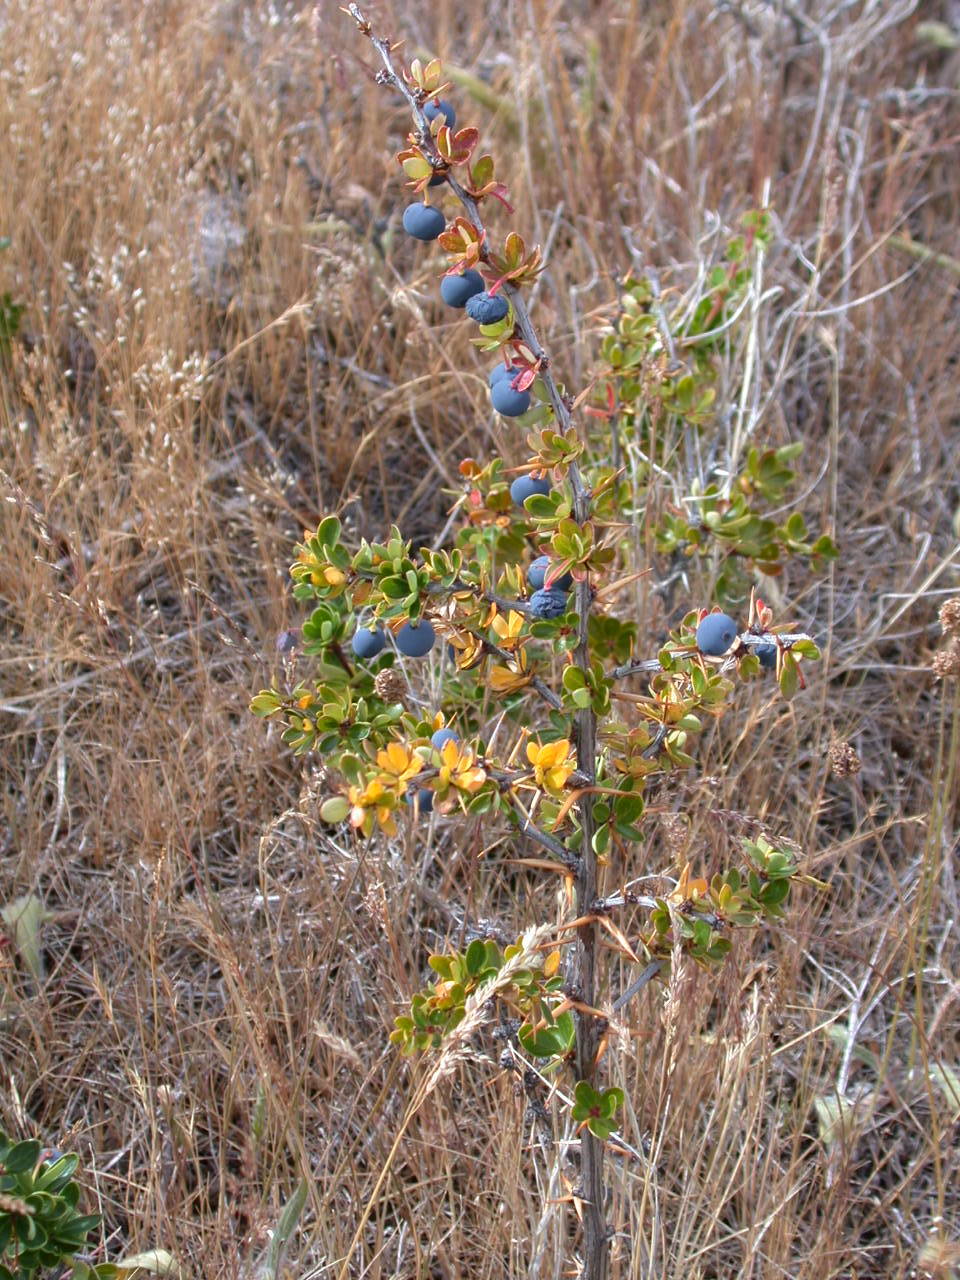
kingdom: Plantae
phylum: Tracheophyta
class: Magnoliopsida
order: Ranunculales
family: Berberidaceae
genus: Berberis
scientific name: Berberis microphylla
